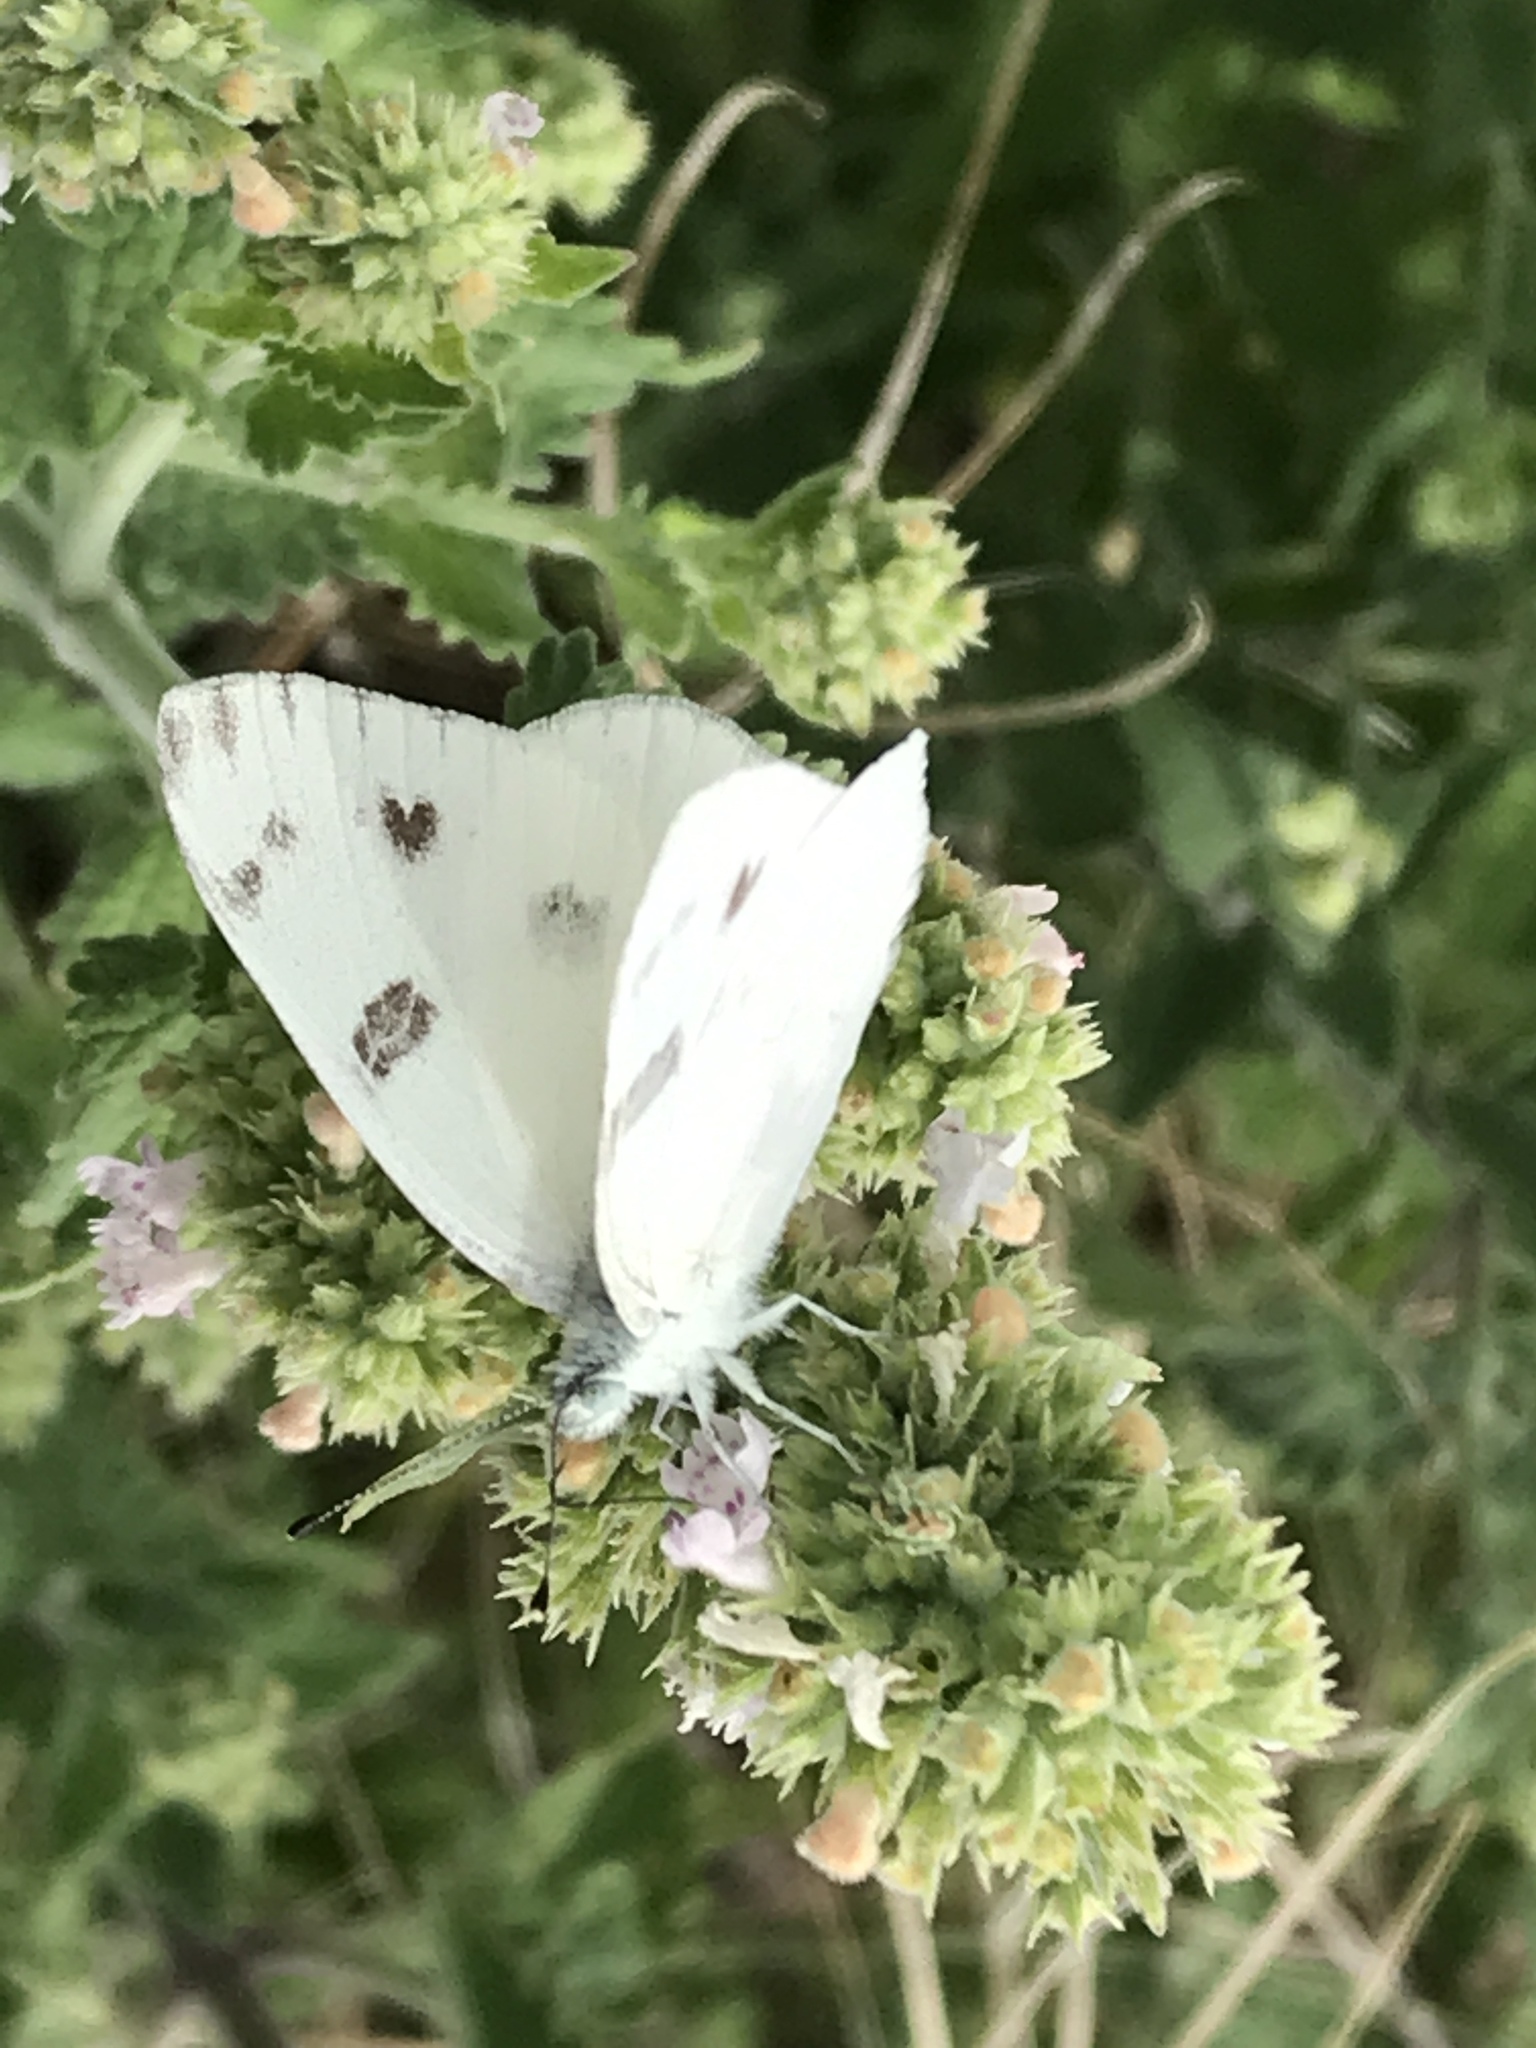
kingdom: Animalia
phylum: Arthropoda
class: Insecta
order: Lepidoptera
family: Pieridae
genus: Pontia
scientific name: Pontia protodice
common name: Checkered white
